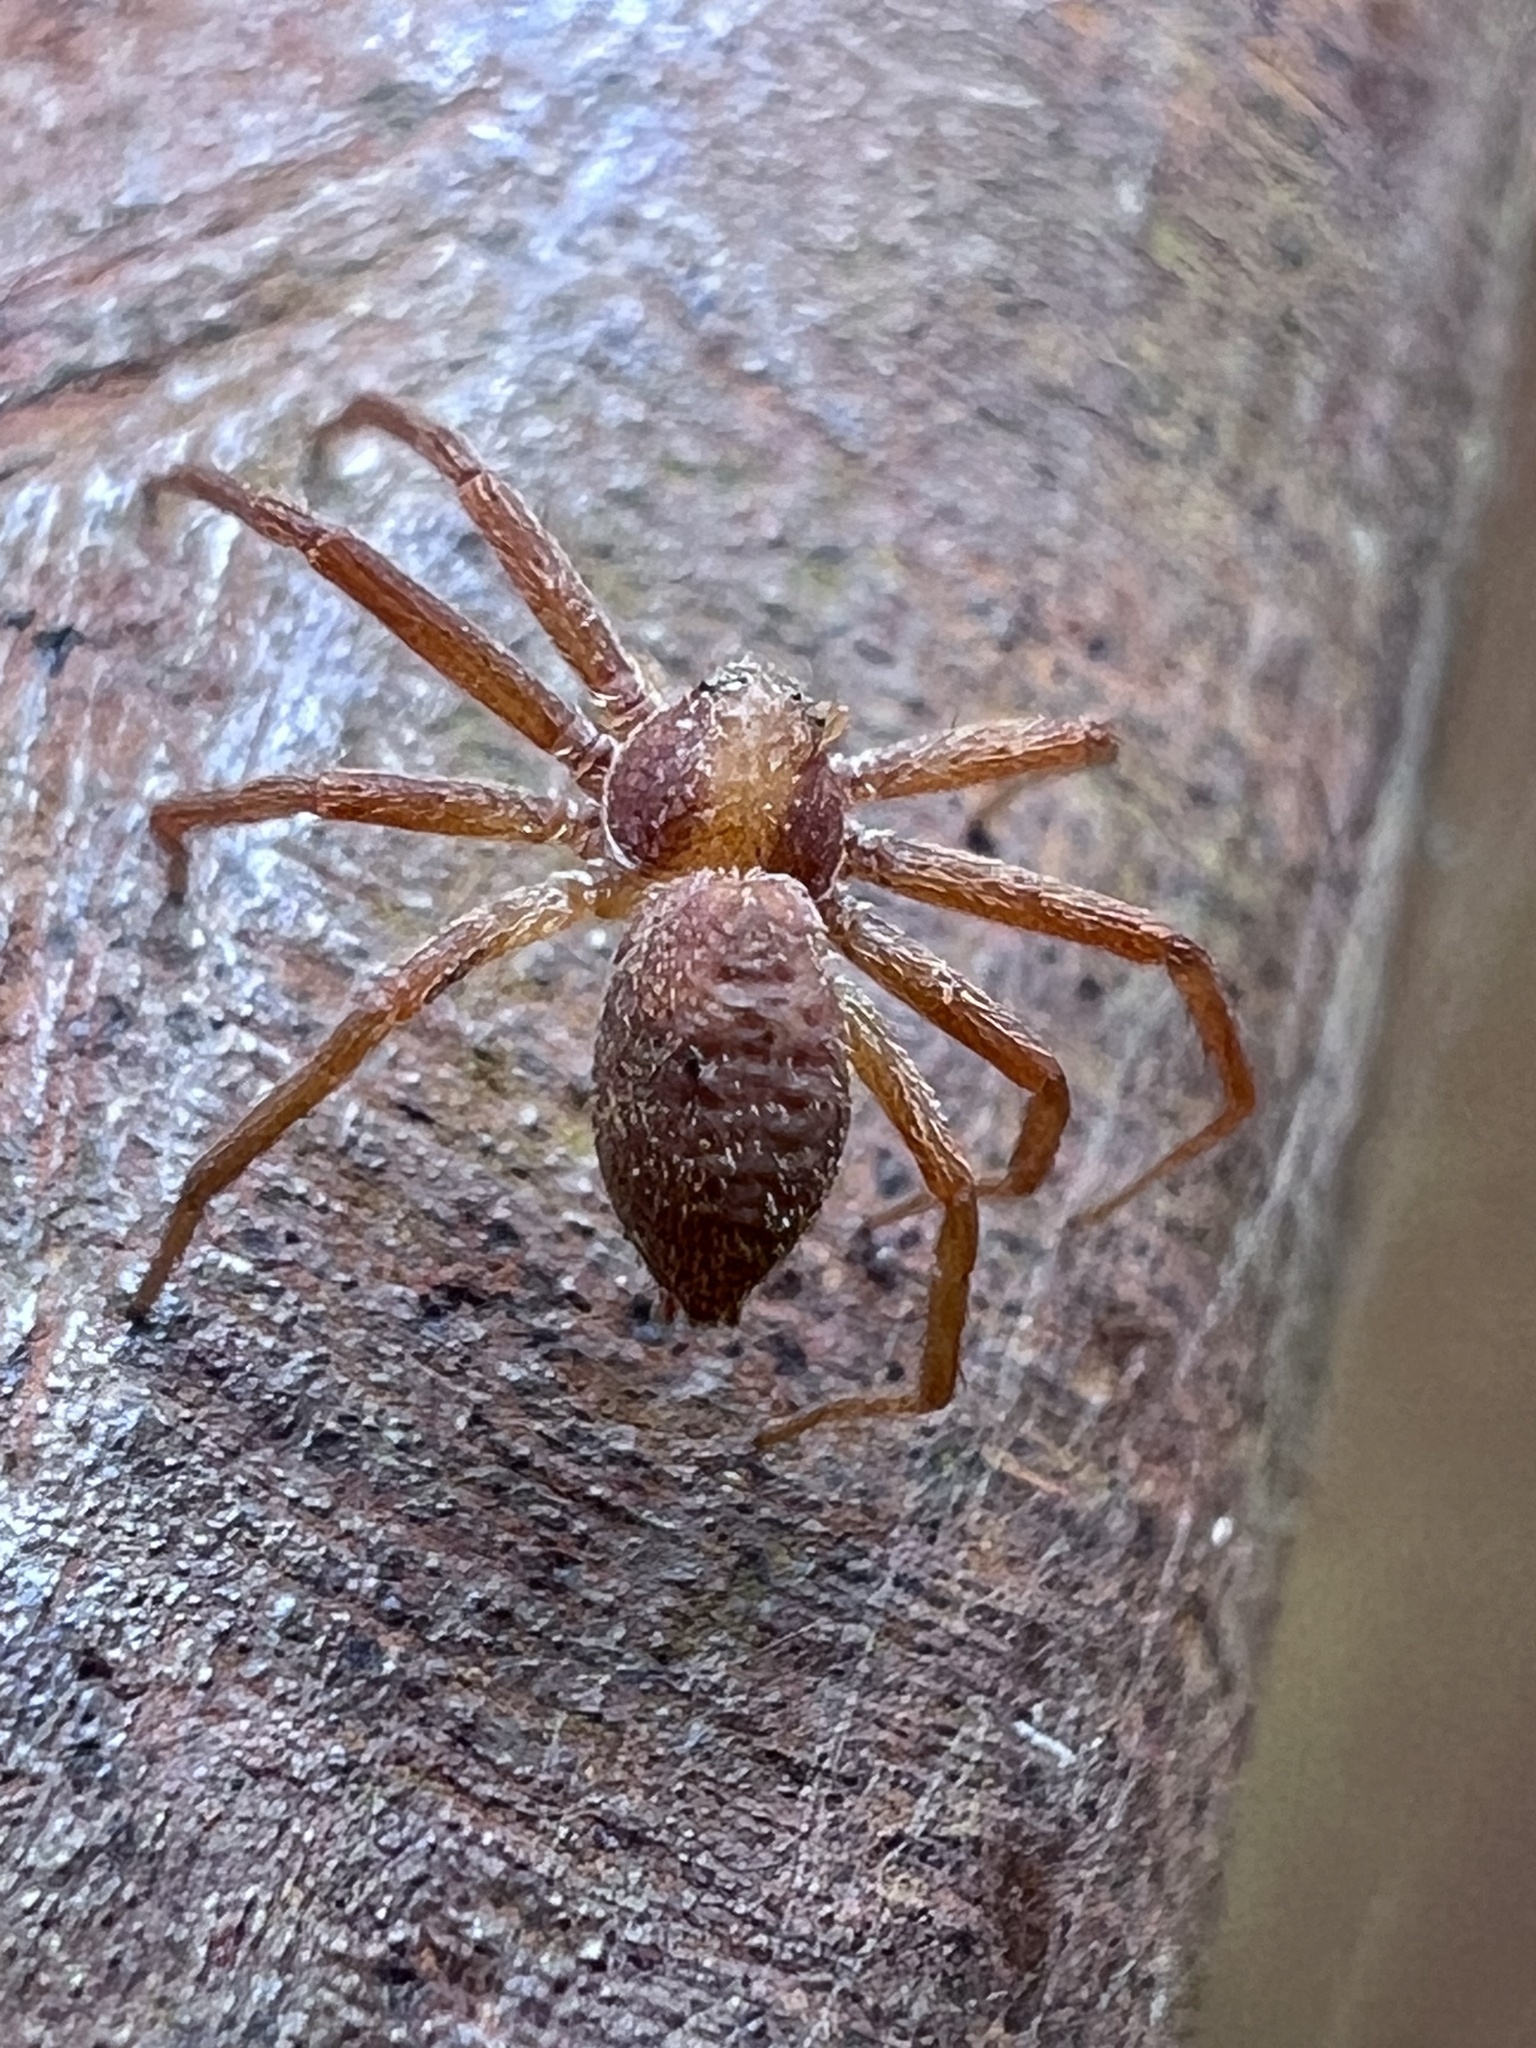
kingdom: Animalia
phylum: Arthropoda
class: Arachnida
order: Araneae
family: Philodromidae
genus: Philodromus
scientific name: Philodromus rufus
